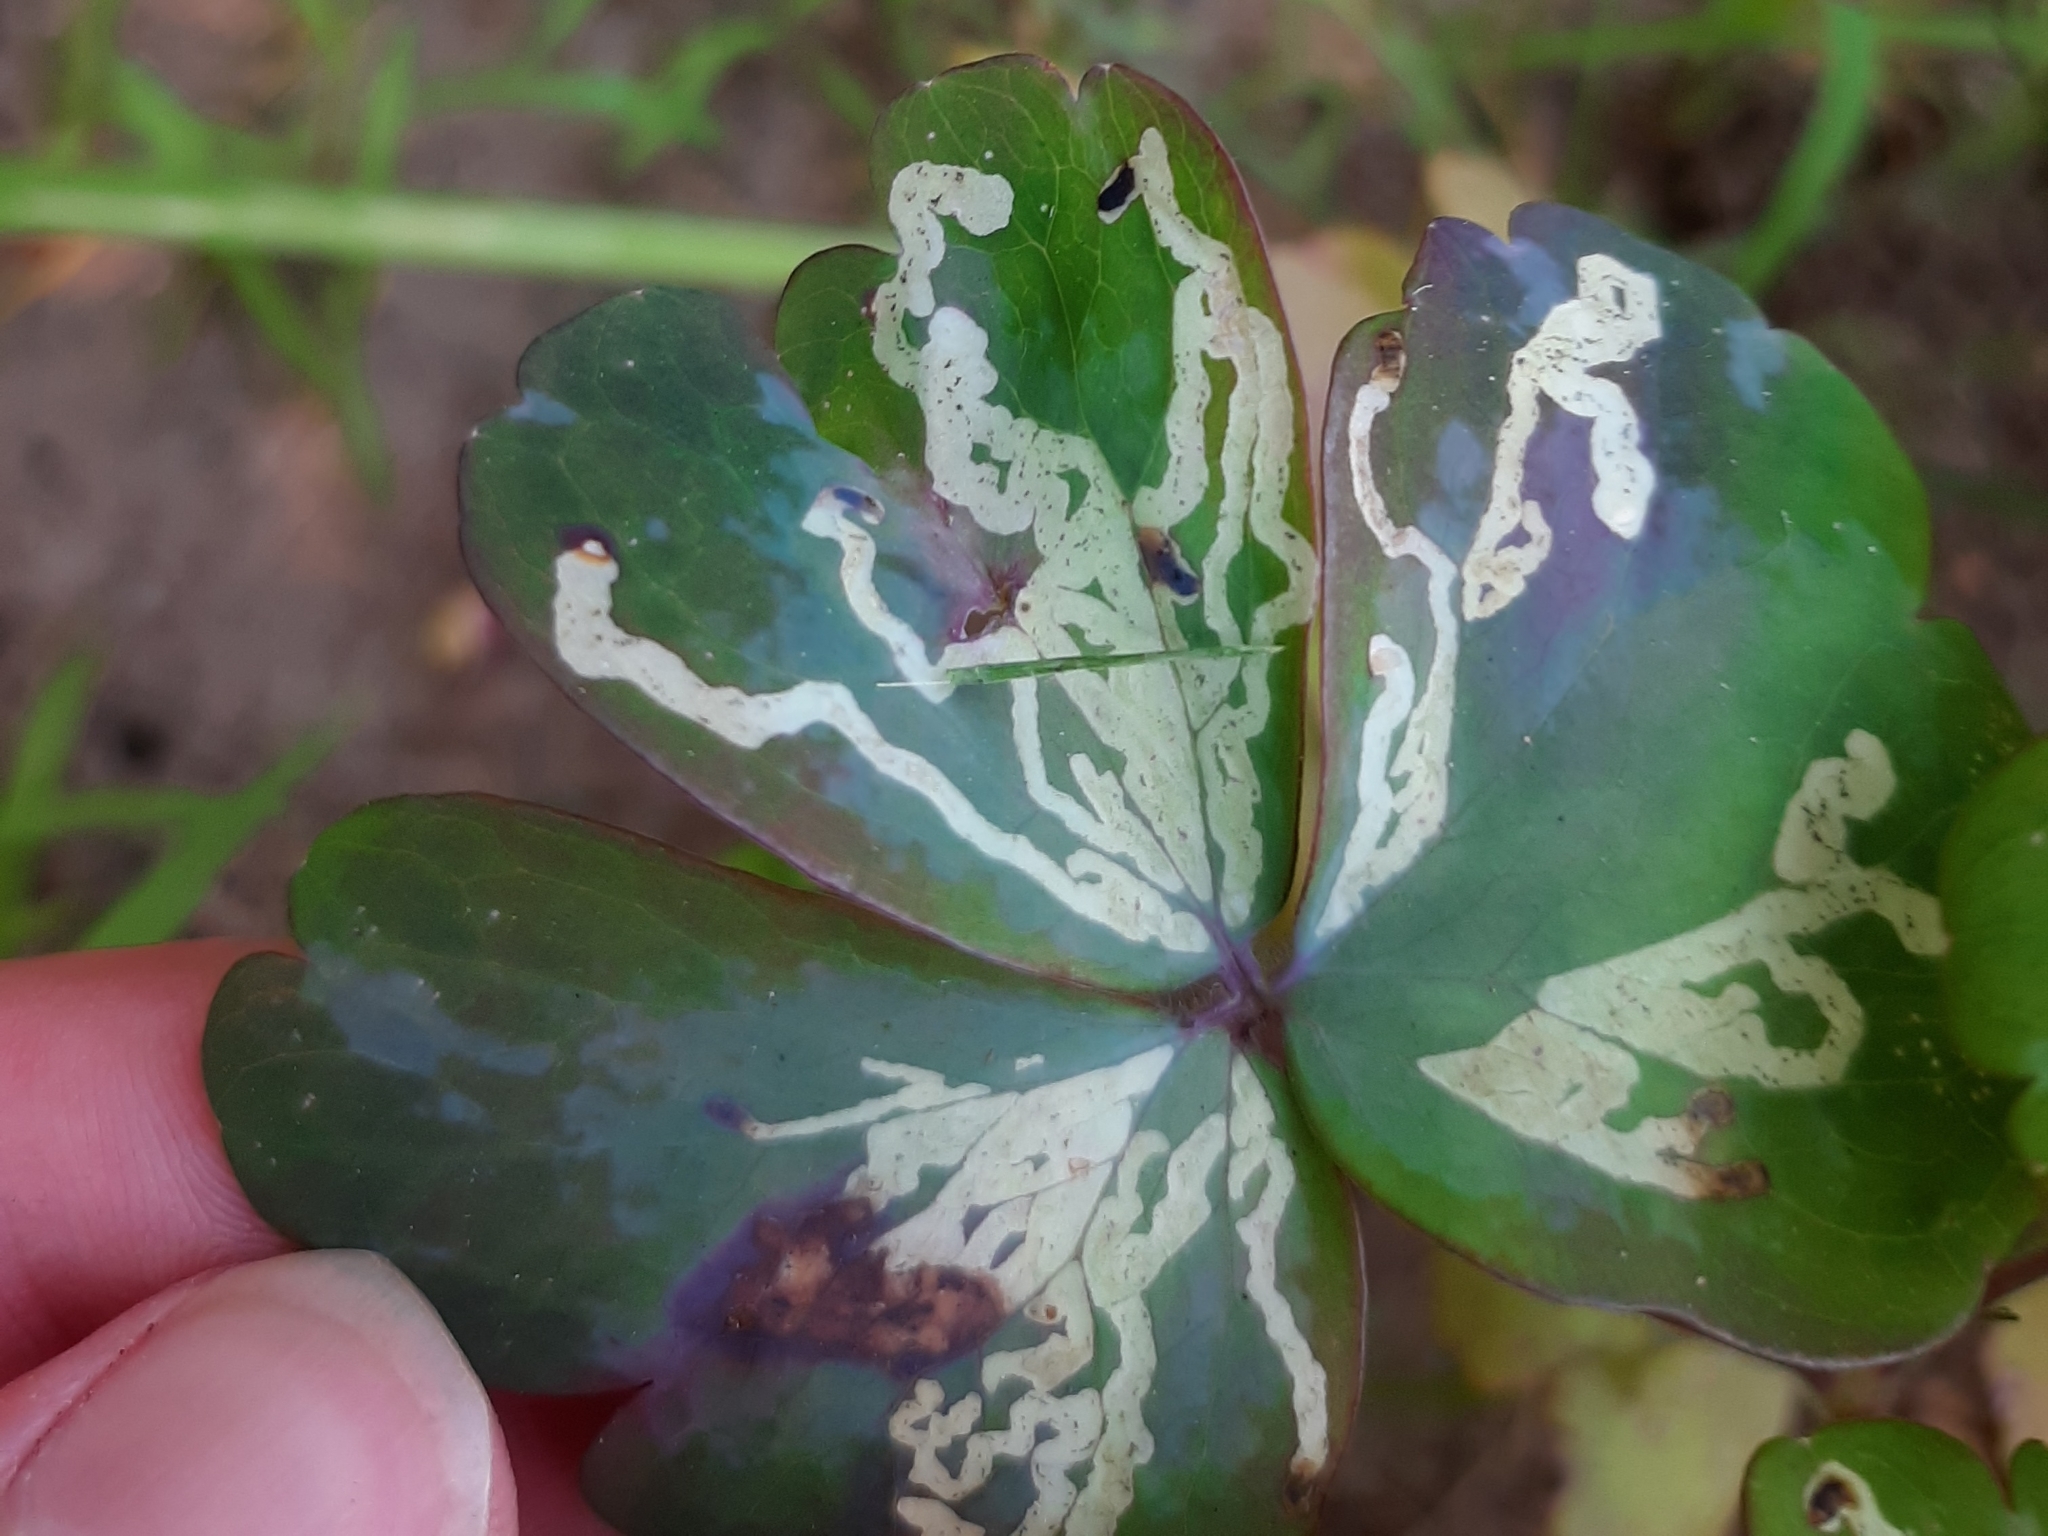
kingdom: Animalia
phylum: Arthropoda
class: Insecta
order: Diptera
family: Agromyzidae
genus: Phytomyza
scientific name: Phytomyza
